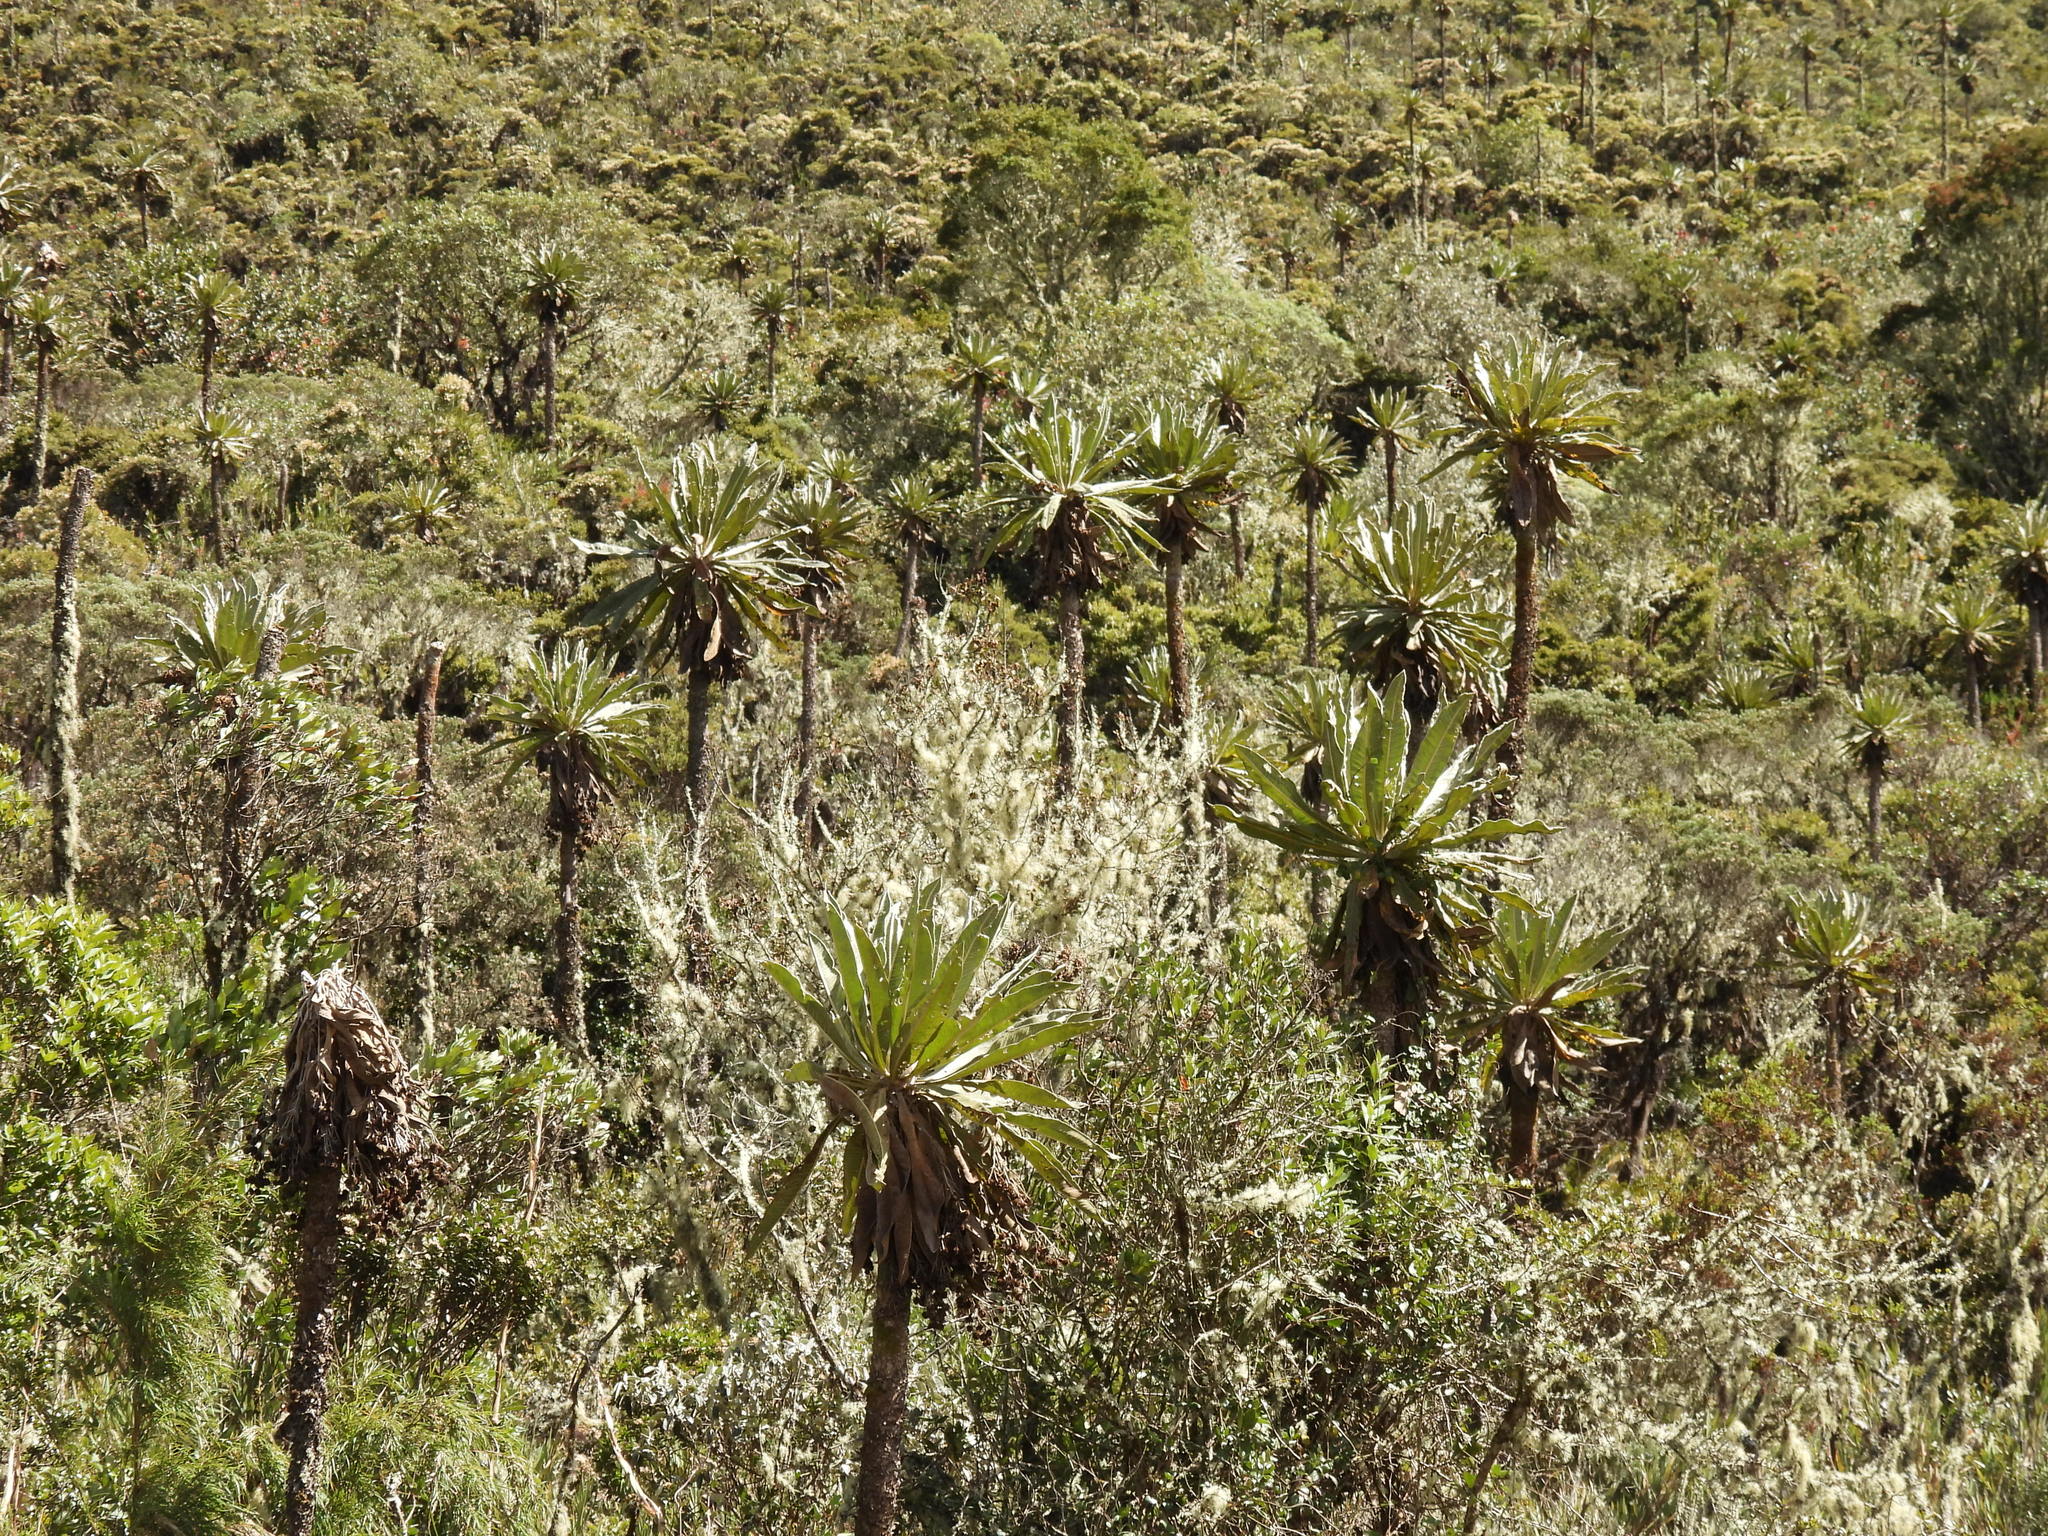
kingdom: Plantae
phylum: Tracheophyta
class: Magnoliopsida
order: Asterales
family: Asteraceae
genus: Espeletia
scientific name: Espeletia uribei
